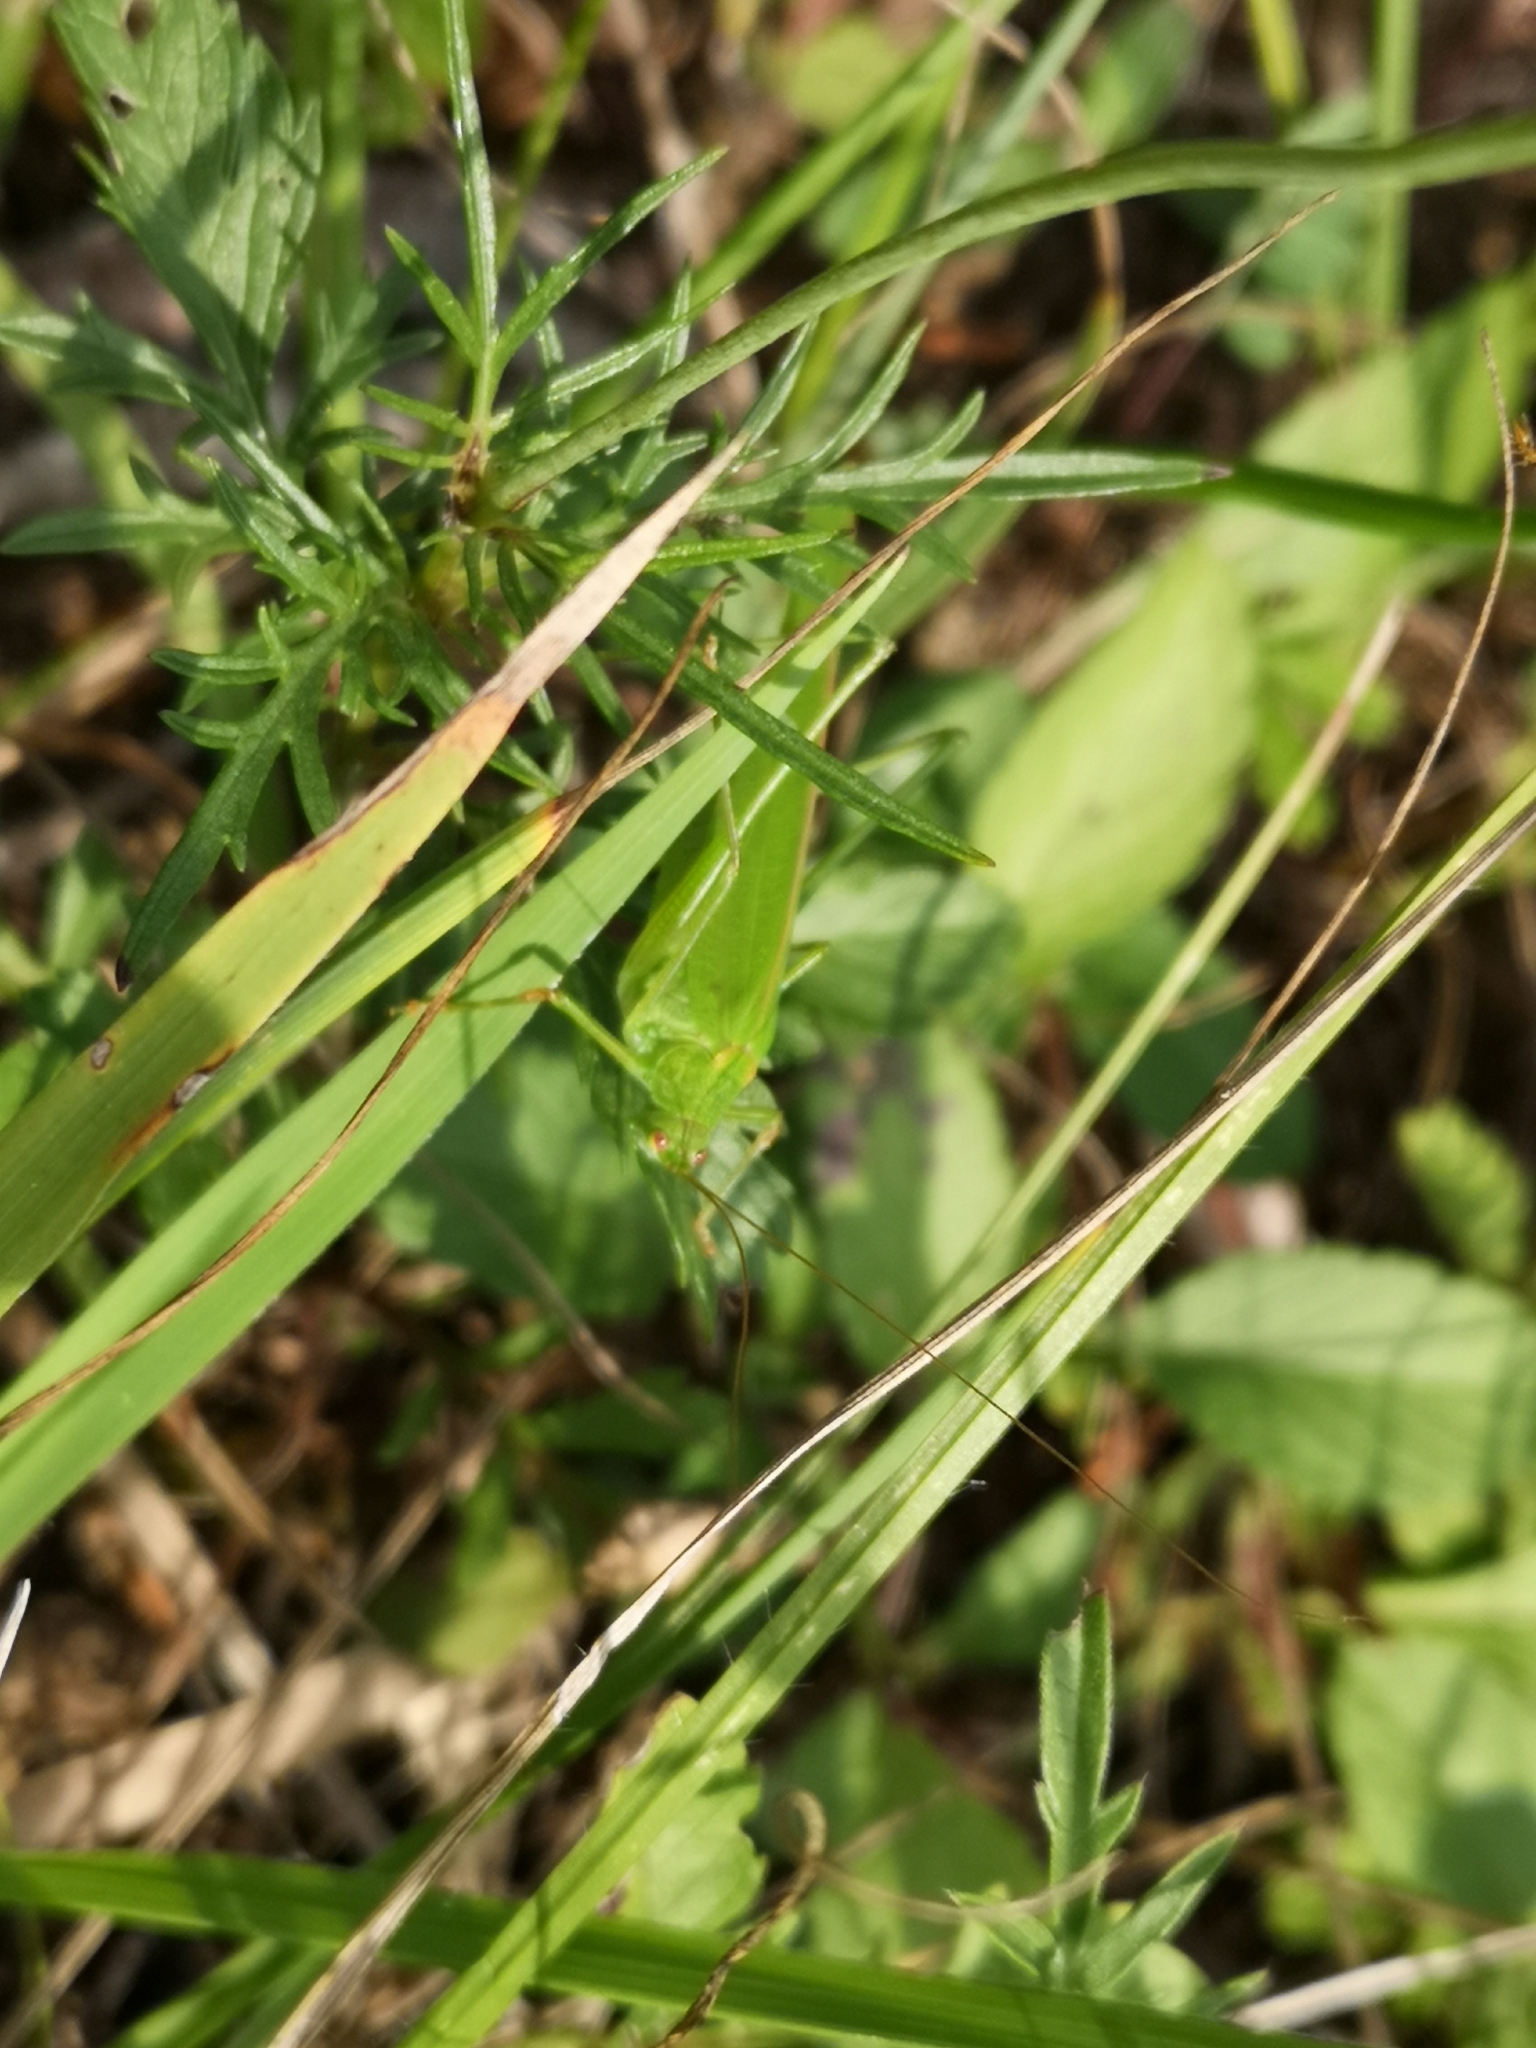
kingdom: Animalia
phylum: Arthropoda
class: Insecta
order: Orthoptera
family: Tettigoniidae
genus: Phaneroptera
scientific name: Phaneroptera falcata
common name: Sickle-bearing bush-cricket
